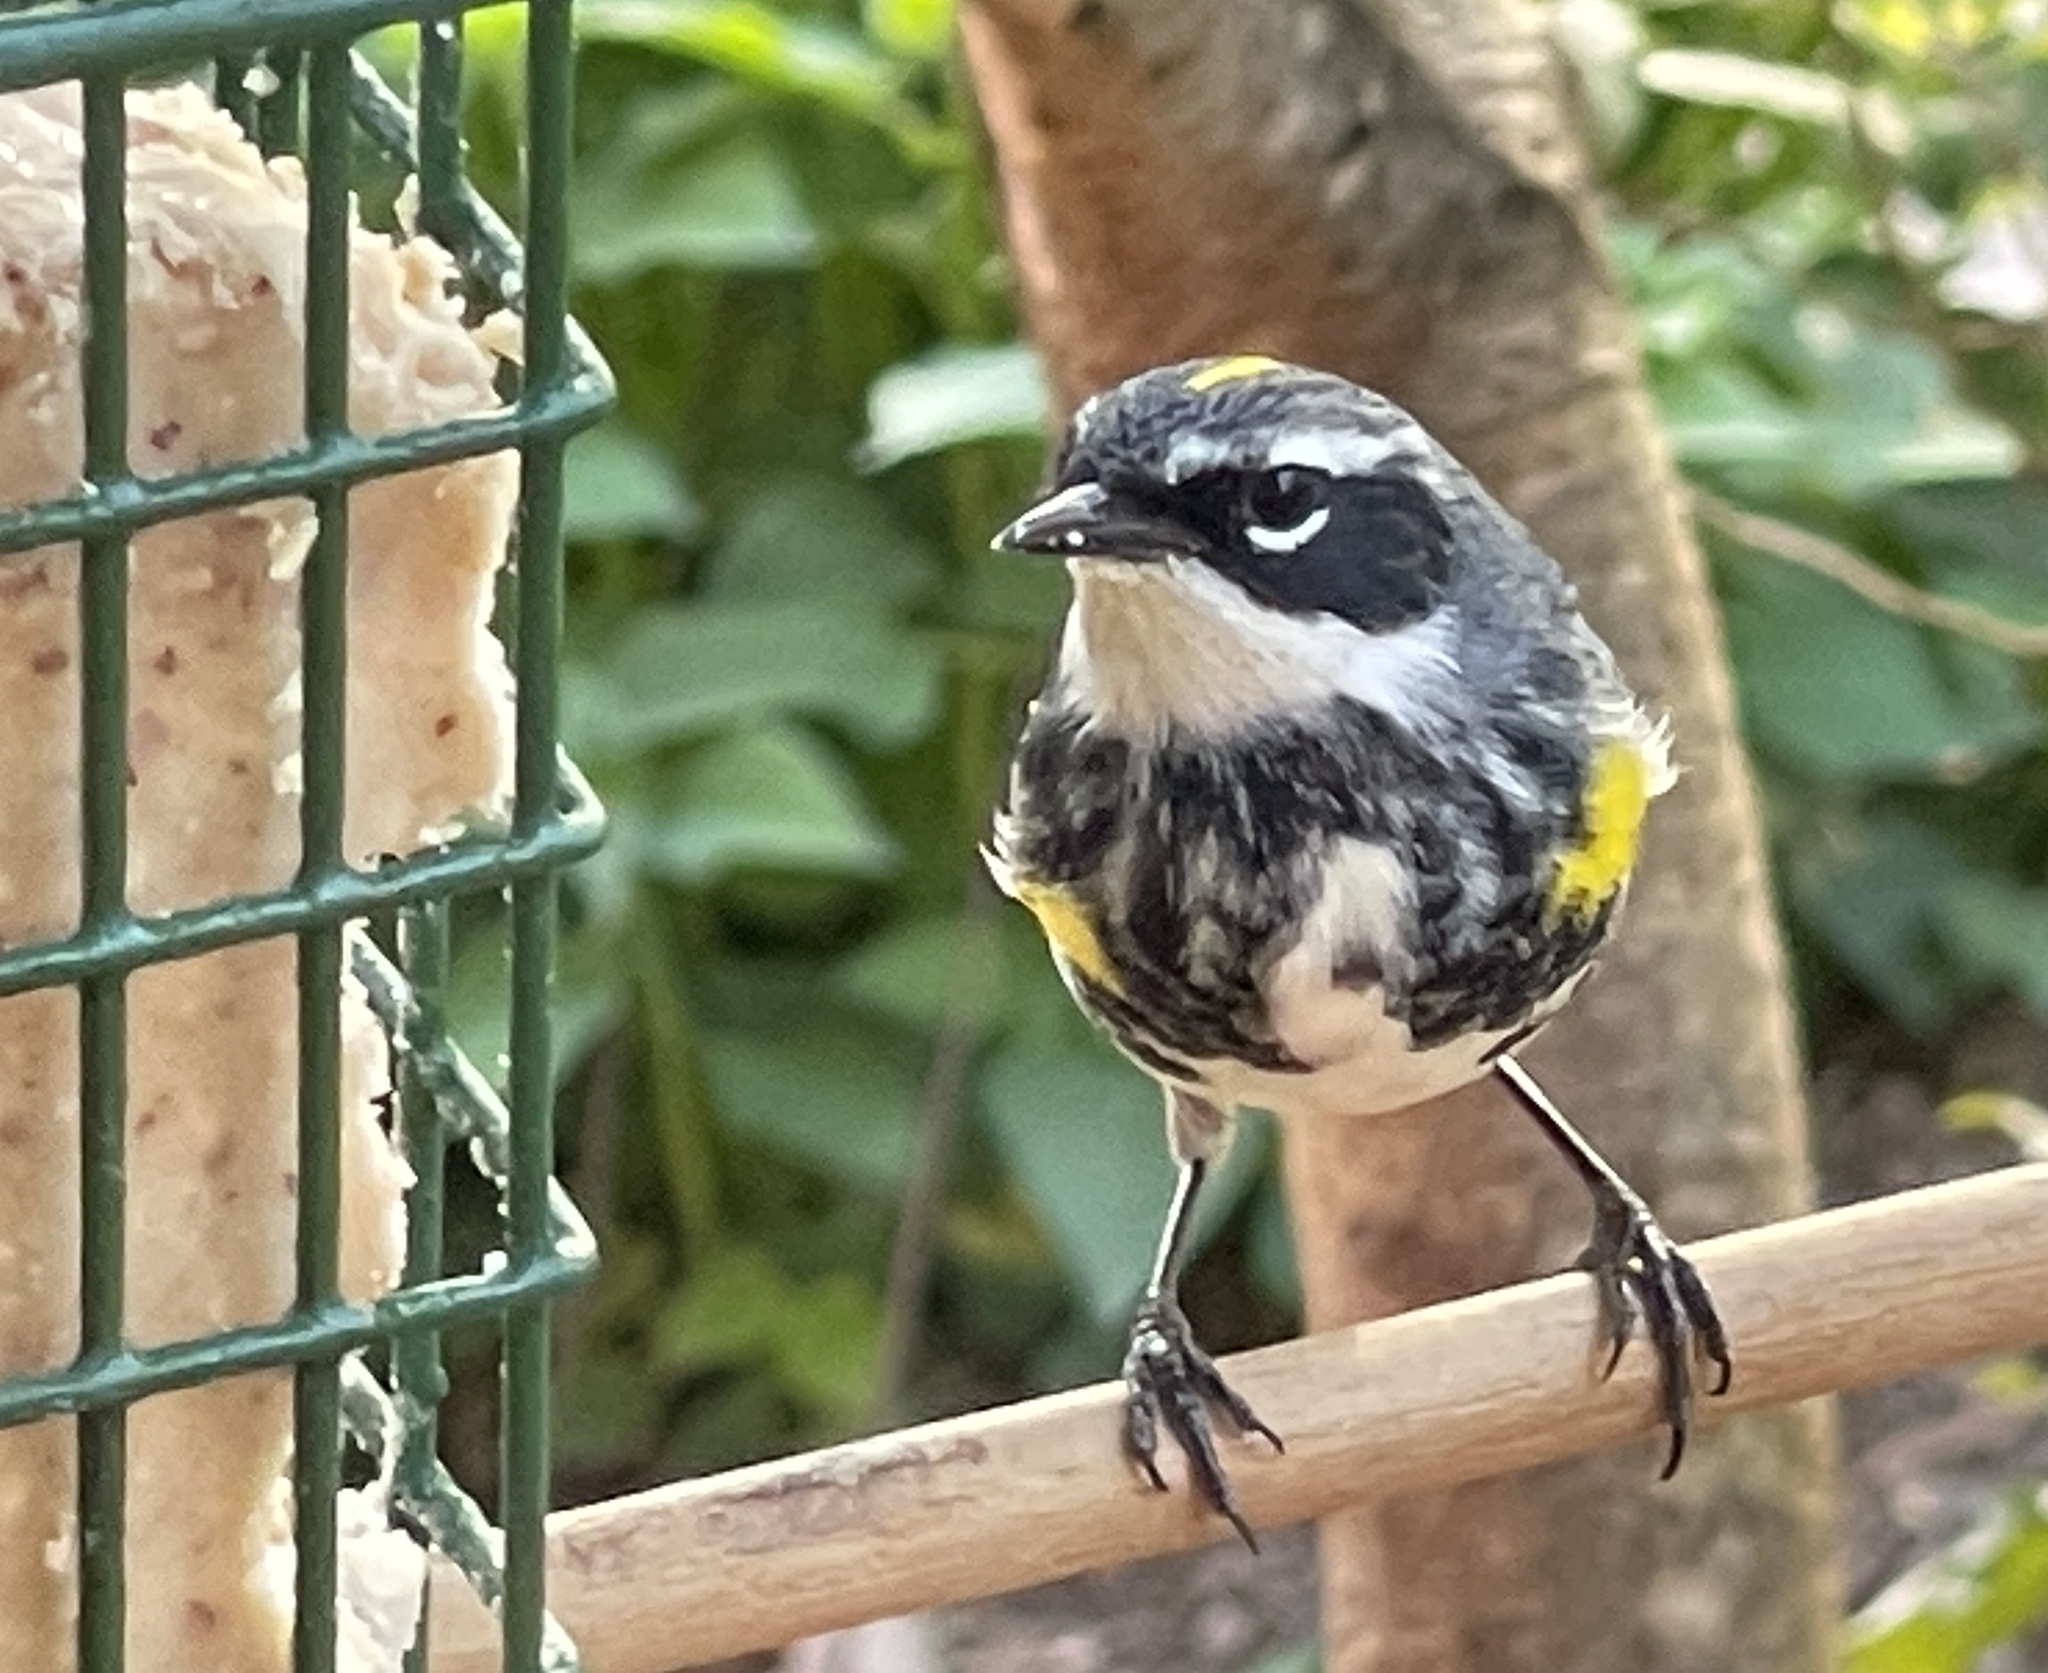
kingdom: Animalia
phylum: Chordata
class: Aves
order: Passeriformes
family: Parulidae
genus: Setophaga
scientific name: Setophaga coronata
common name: Myrtle warbler
